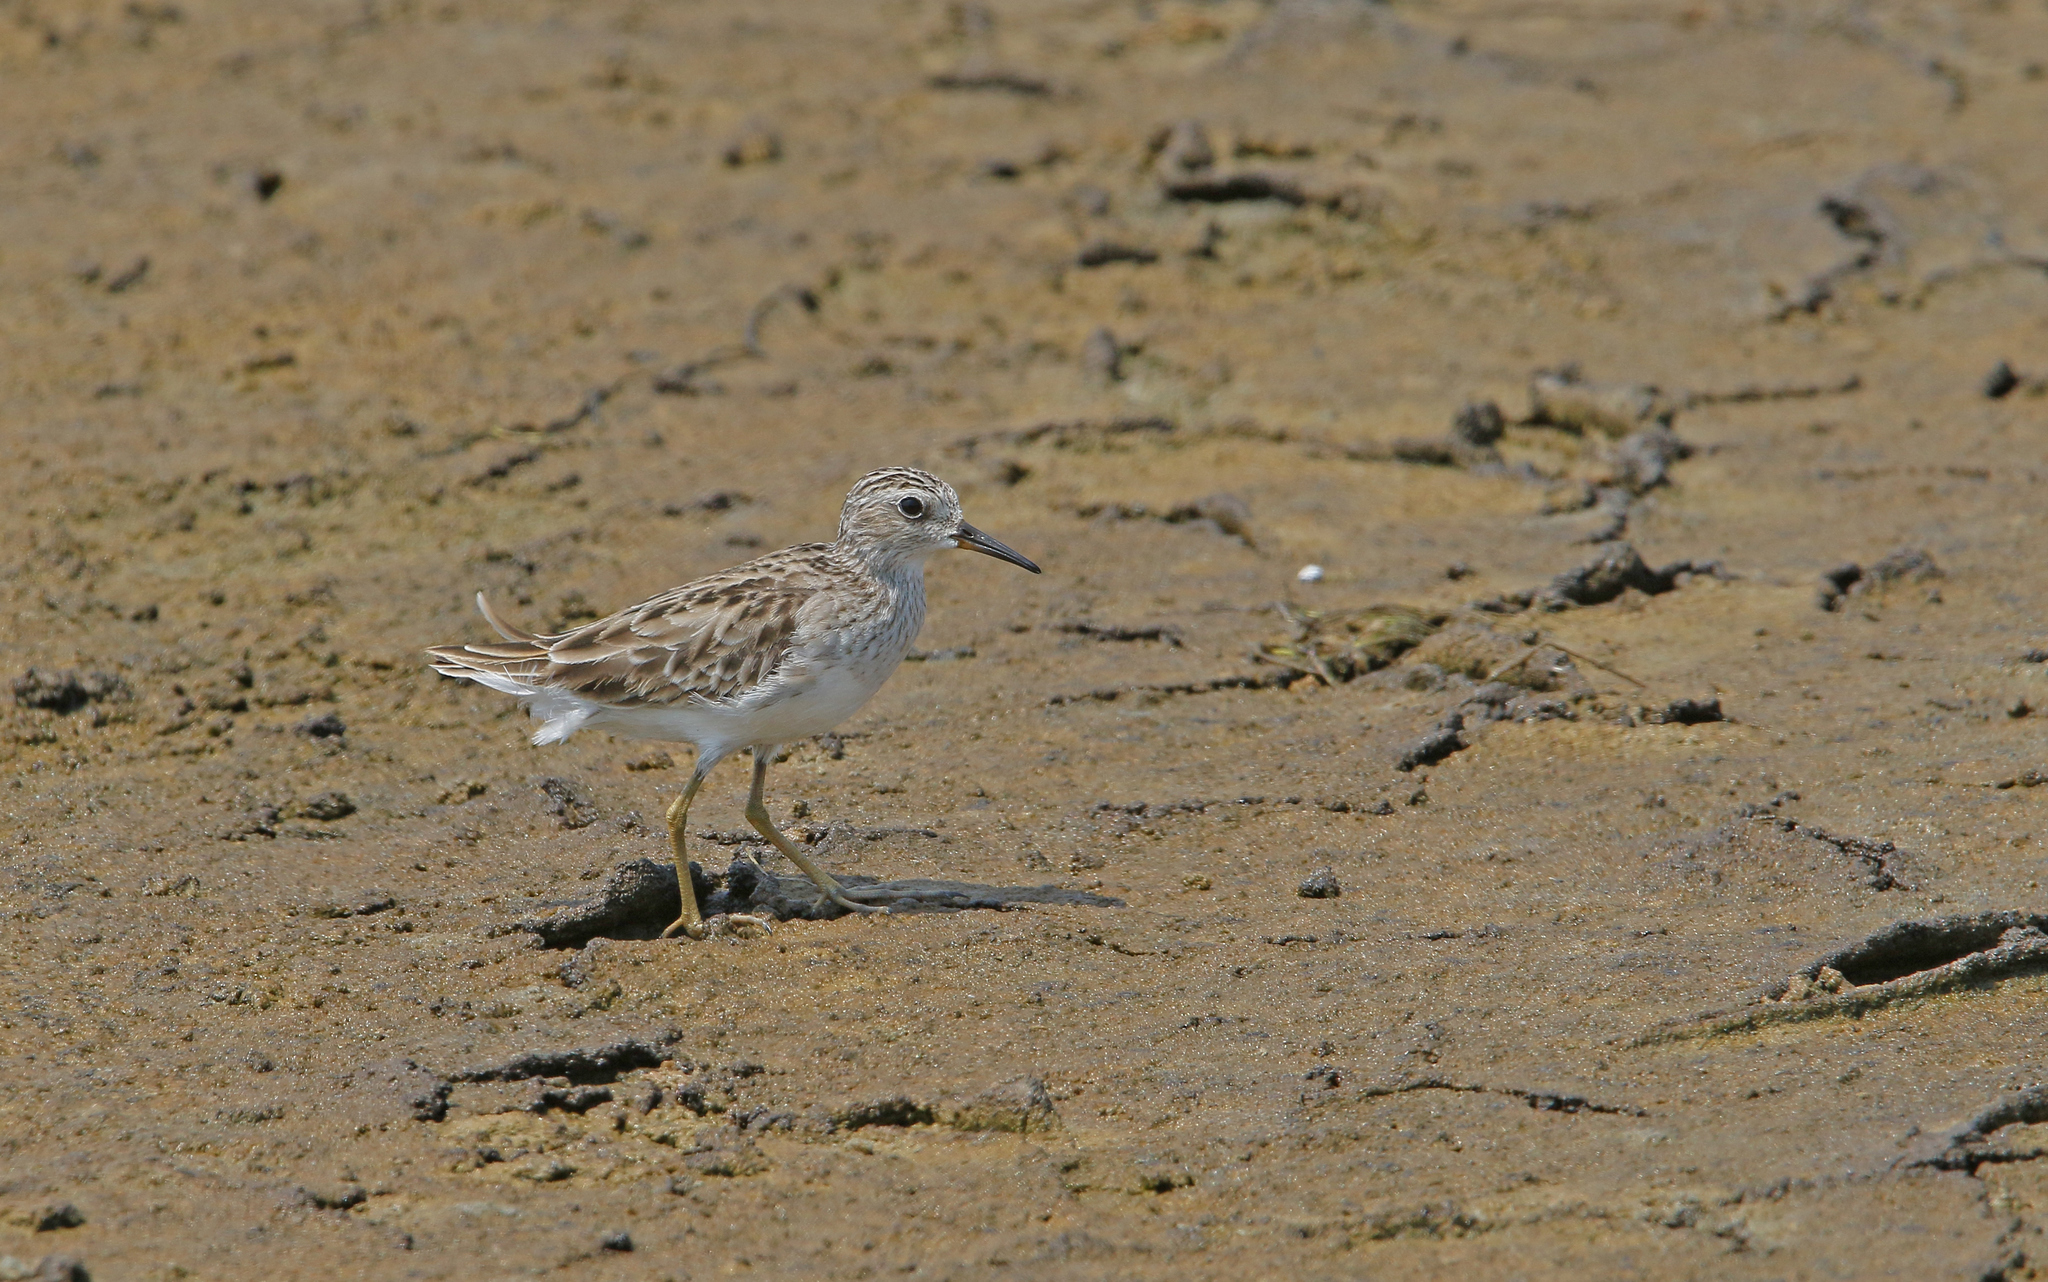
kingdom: Animalia
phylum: Chordata
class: Aves
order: Charadriiformes
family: Scolopacidae
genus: Calidris
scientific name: Calidris subminuta
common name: Long-toed stint
